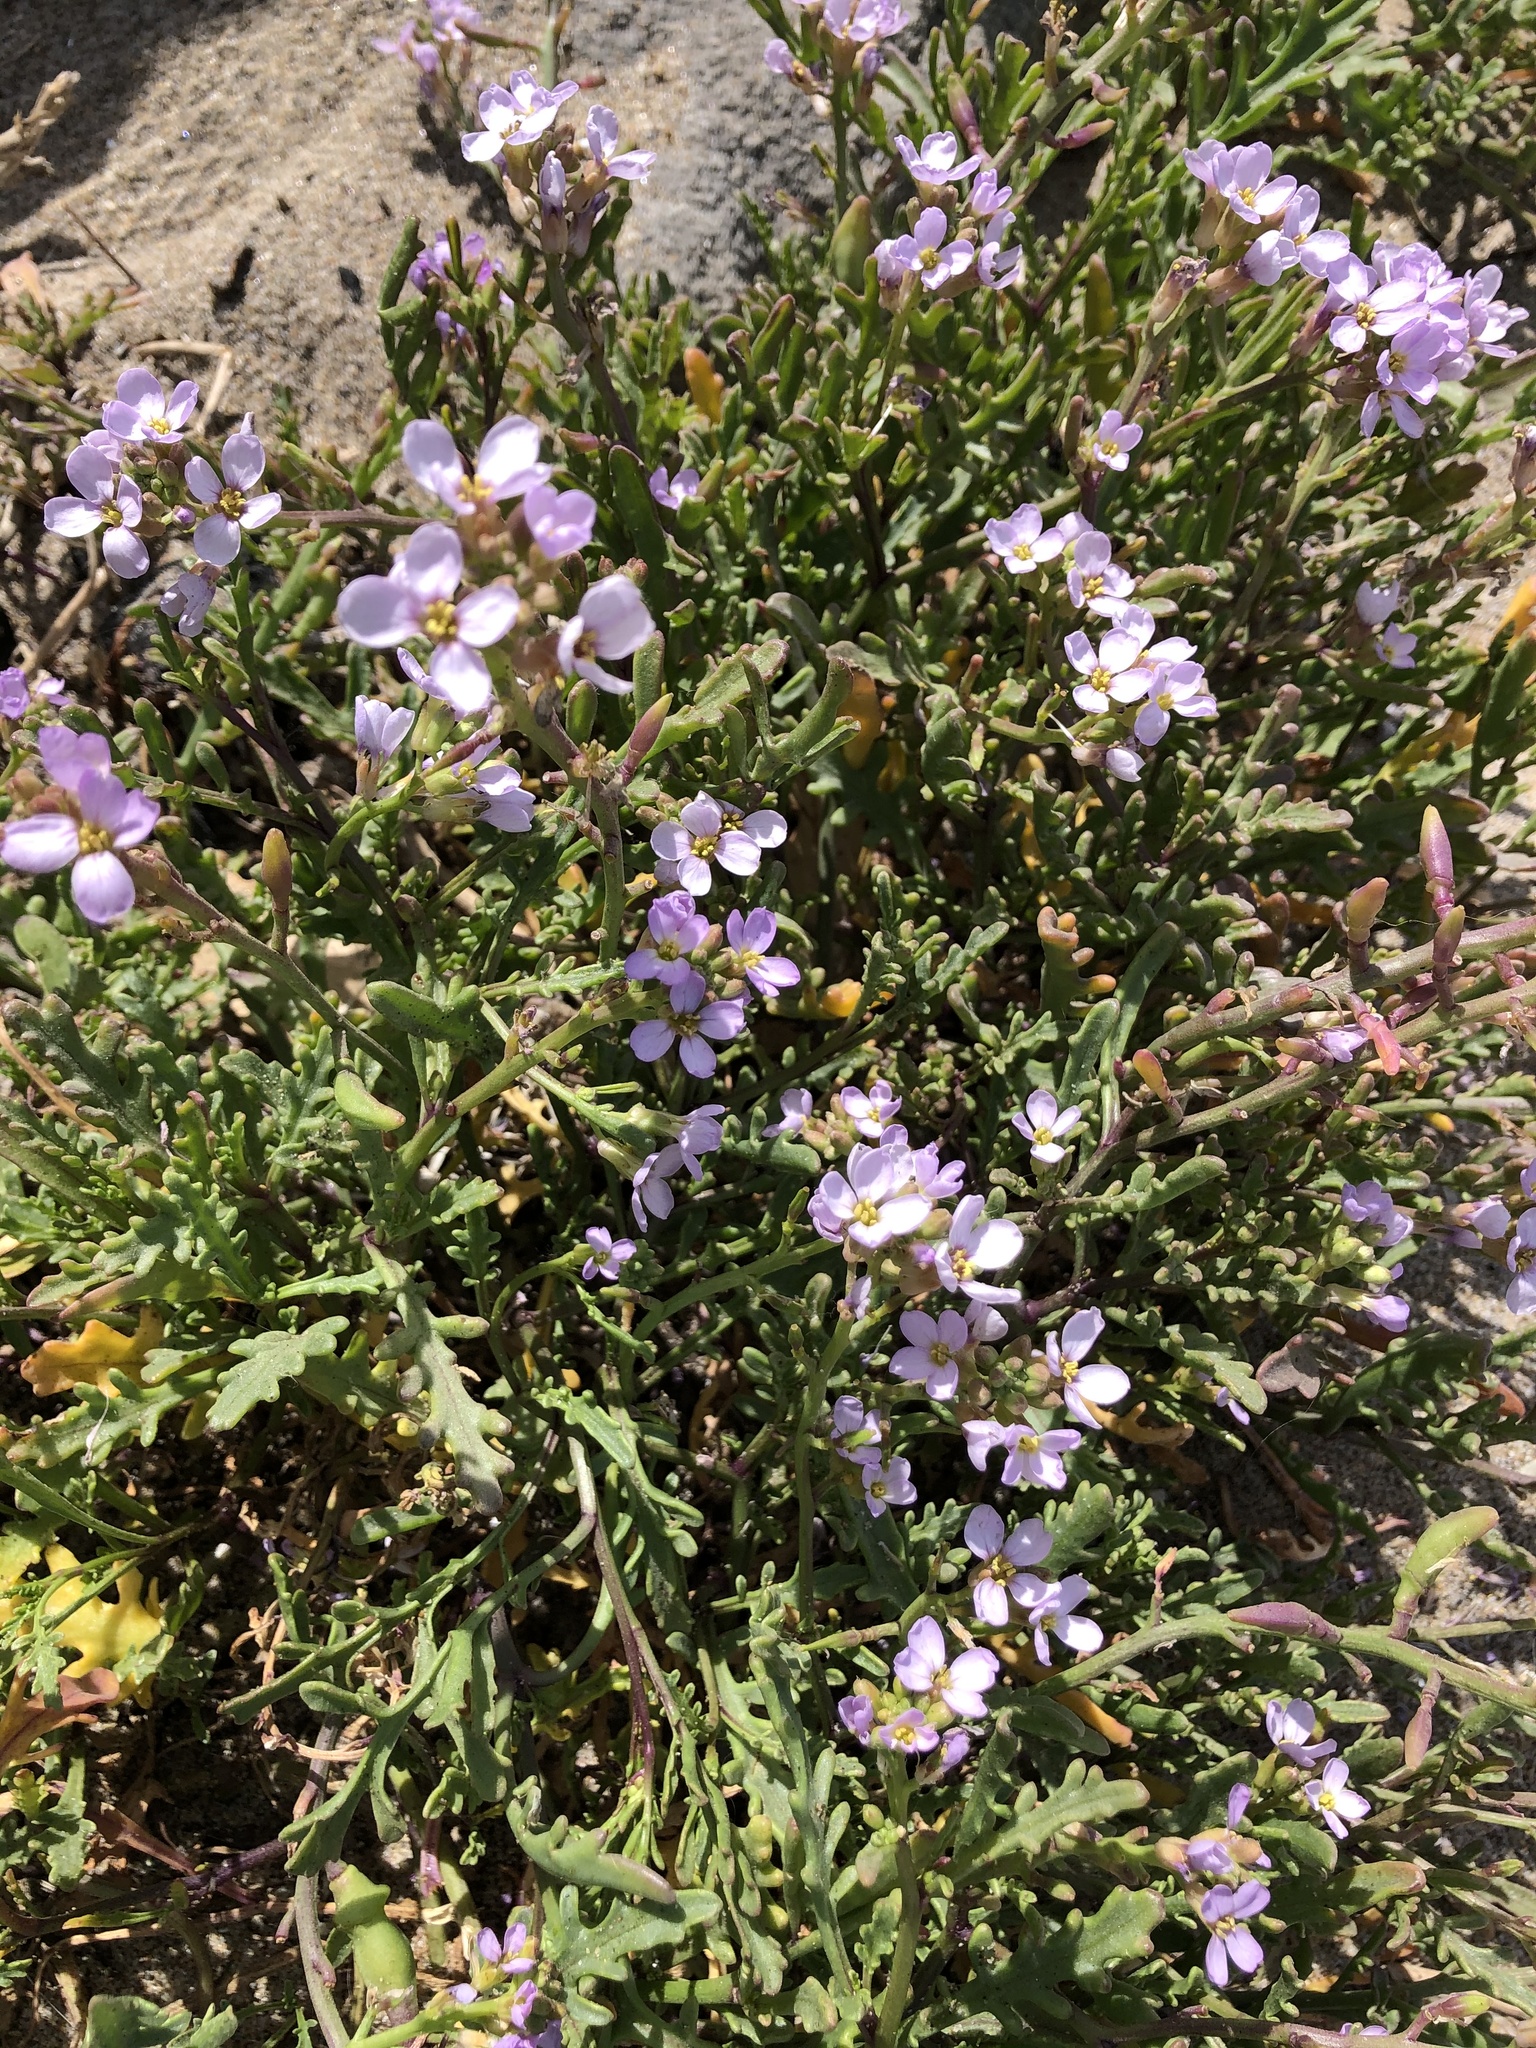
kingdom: Plantae
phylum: Tracheophyta
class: Magnoliopsida
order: Brassicales
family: Brassicaceae
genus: Cakile
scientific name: Cakile maritima
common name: Sea rocket
